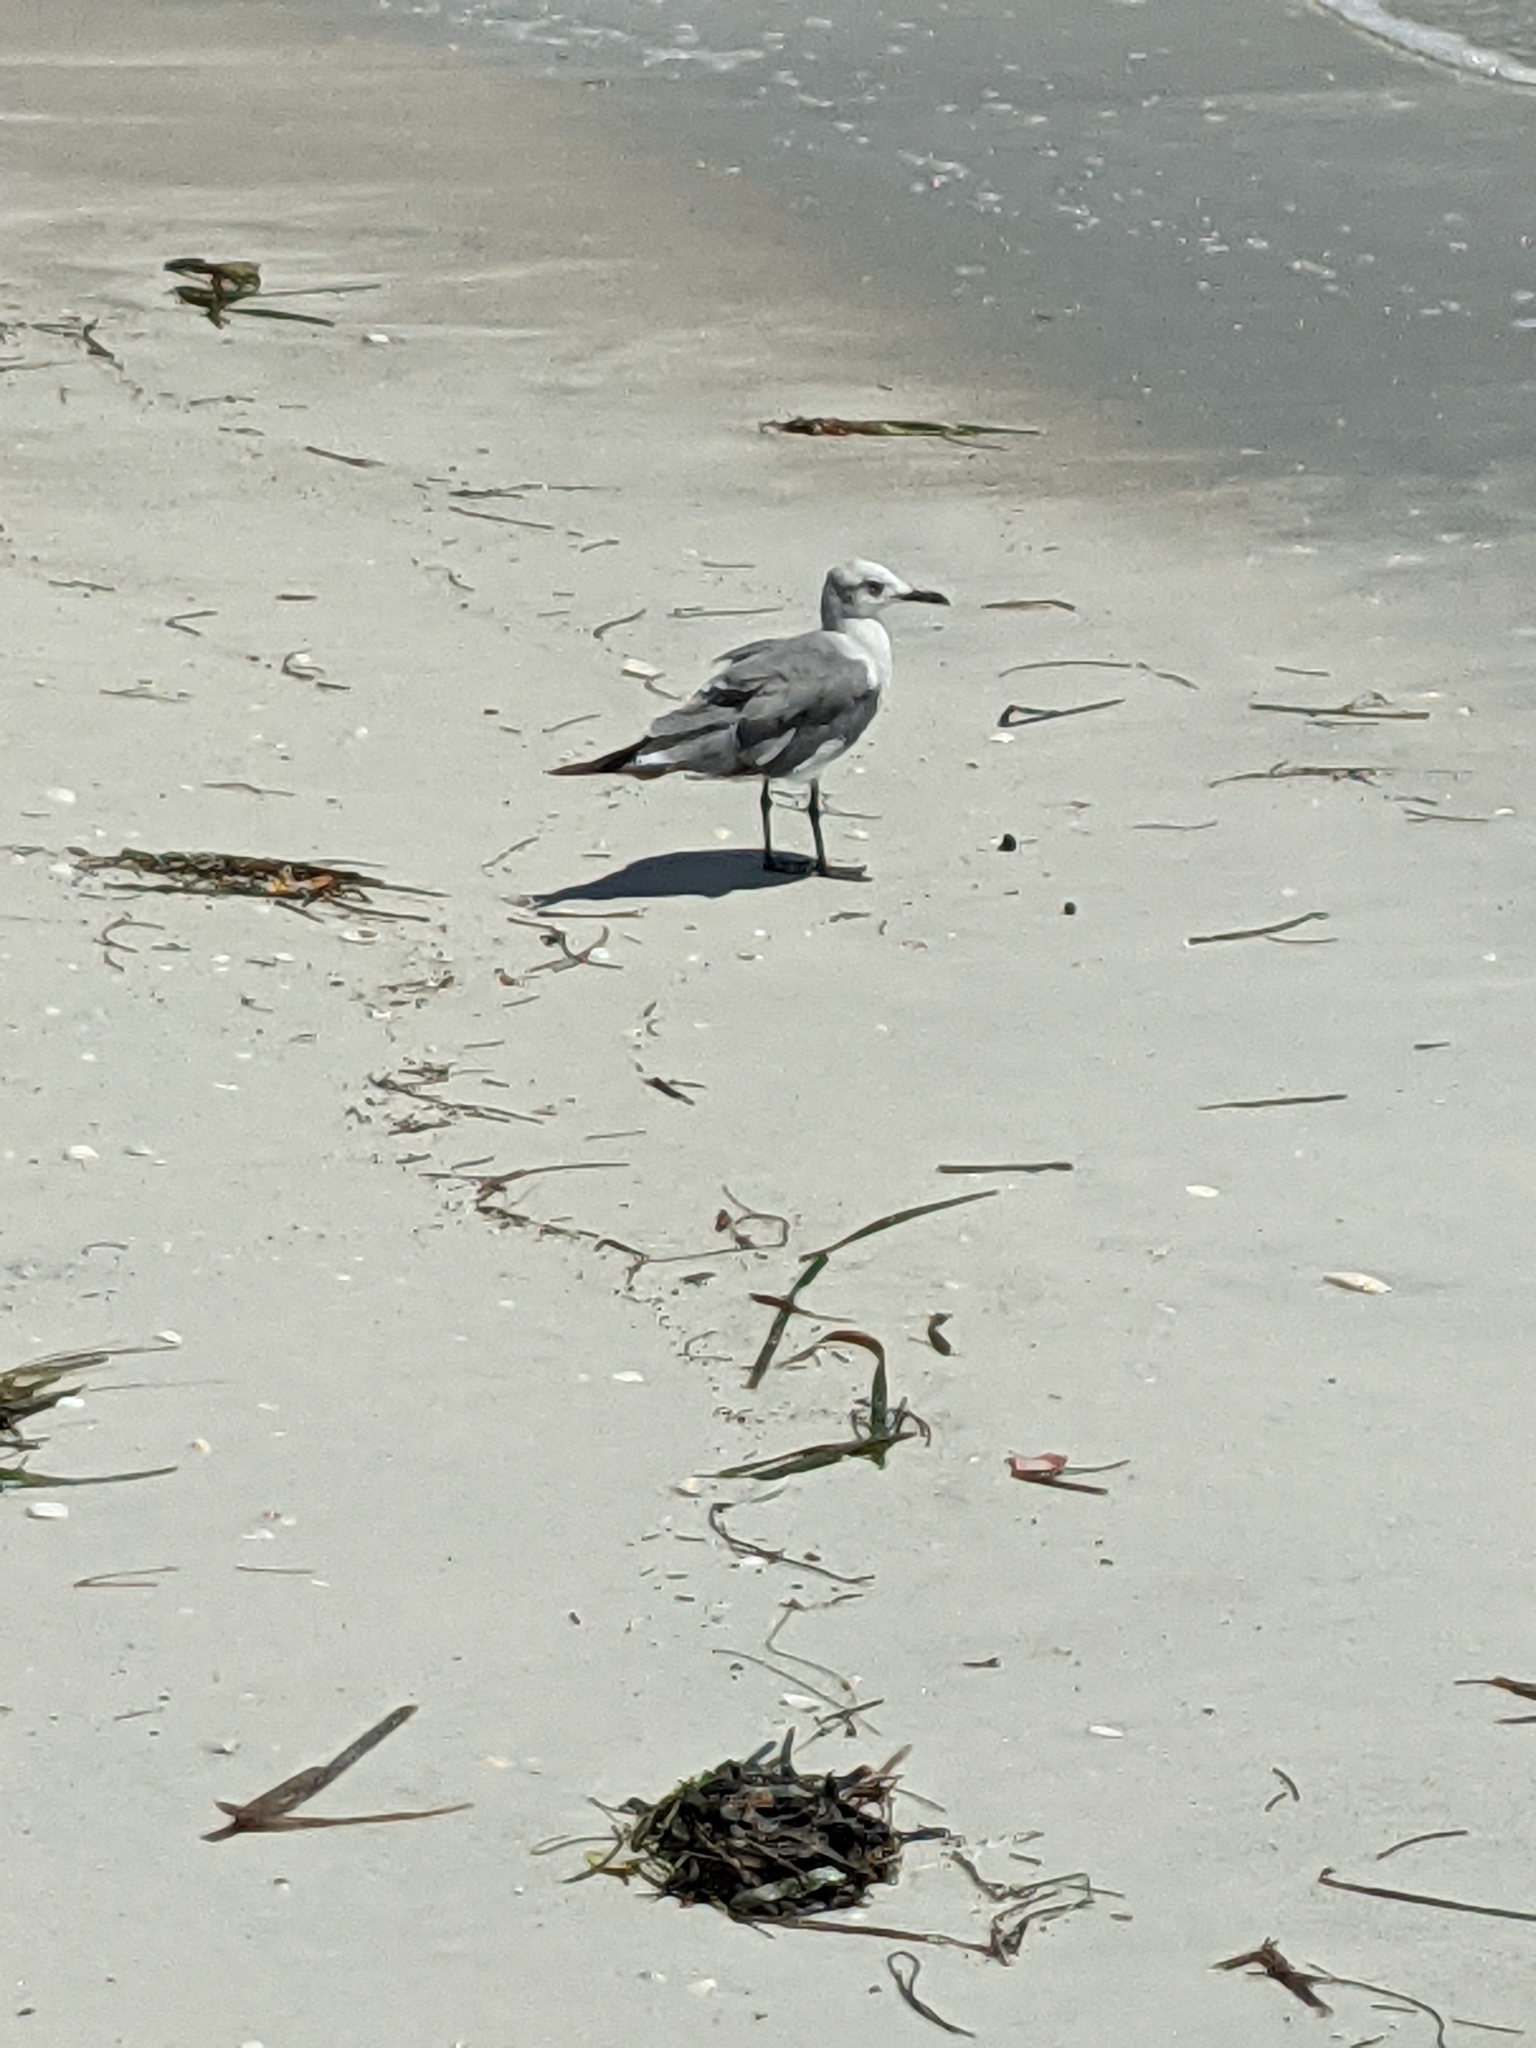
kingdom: Animalia
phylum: Chordata
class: Aves
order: Charadriiformes
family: Laridae
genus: Leucophaeus
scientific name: Leucophaeus atricilla
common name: Laughing gull
